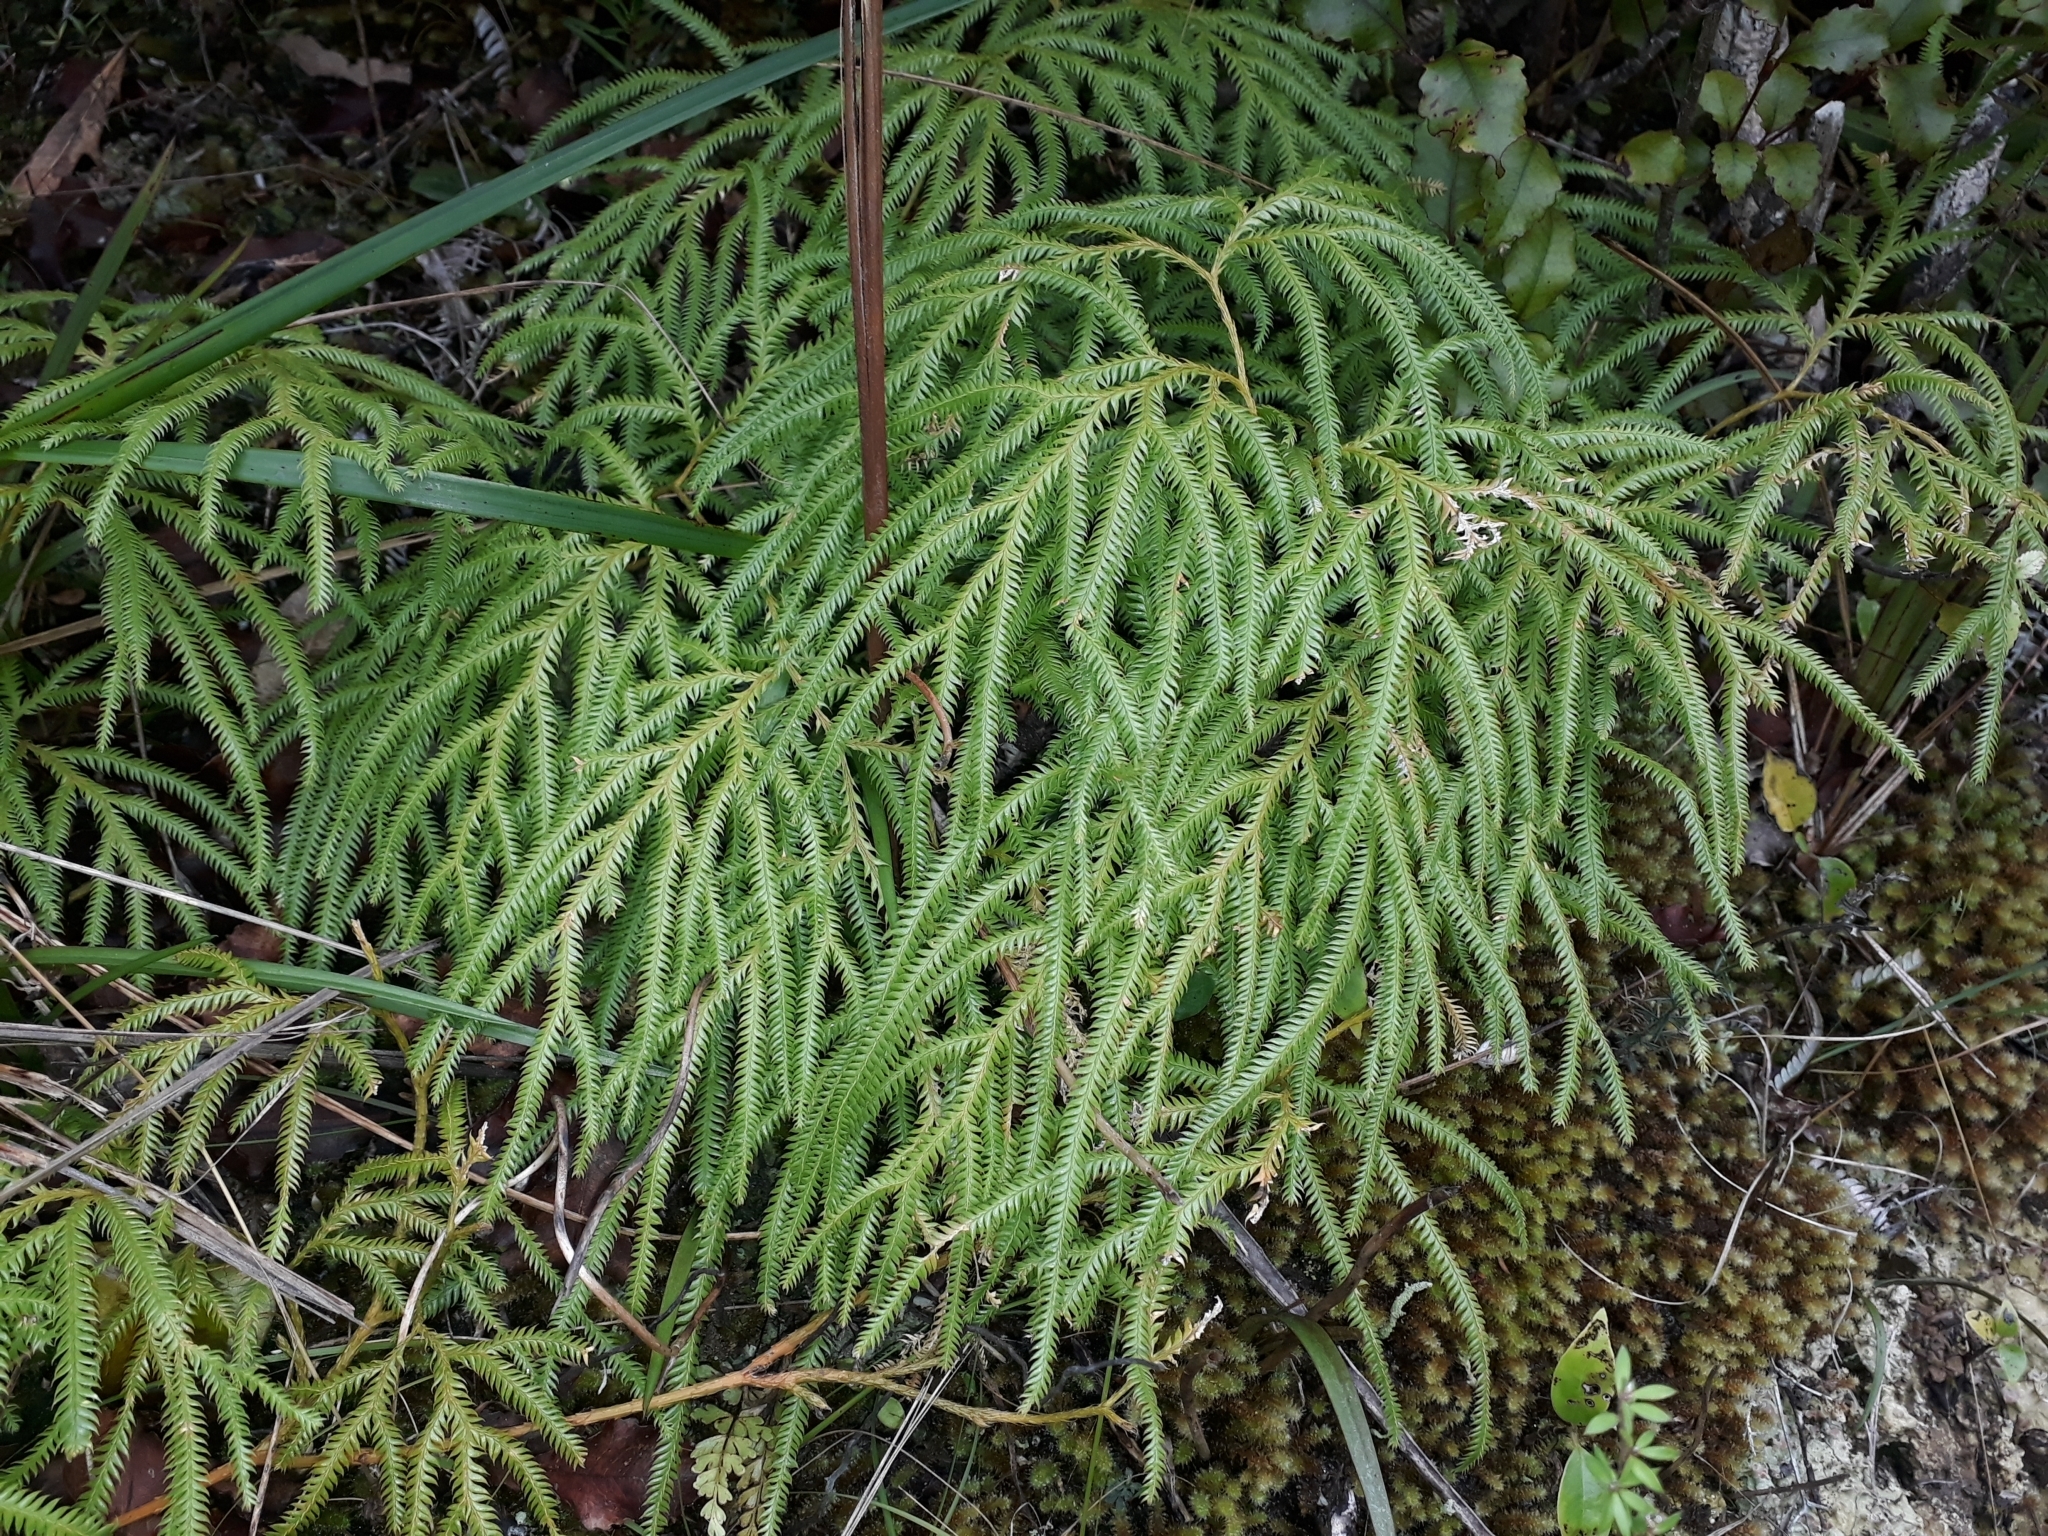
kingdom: Plantae
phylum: Tracheophyta
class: Lycopodiopsida
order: Lycopodiales
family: Lycopodiaceae
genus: Lycopodium
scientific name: Lycopodium volubile
